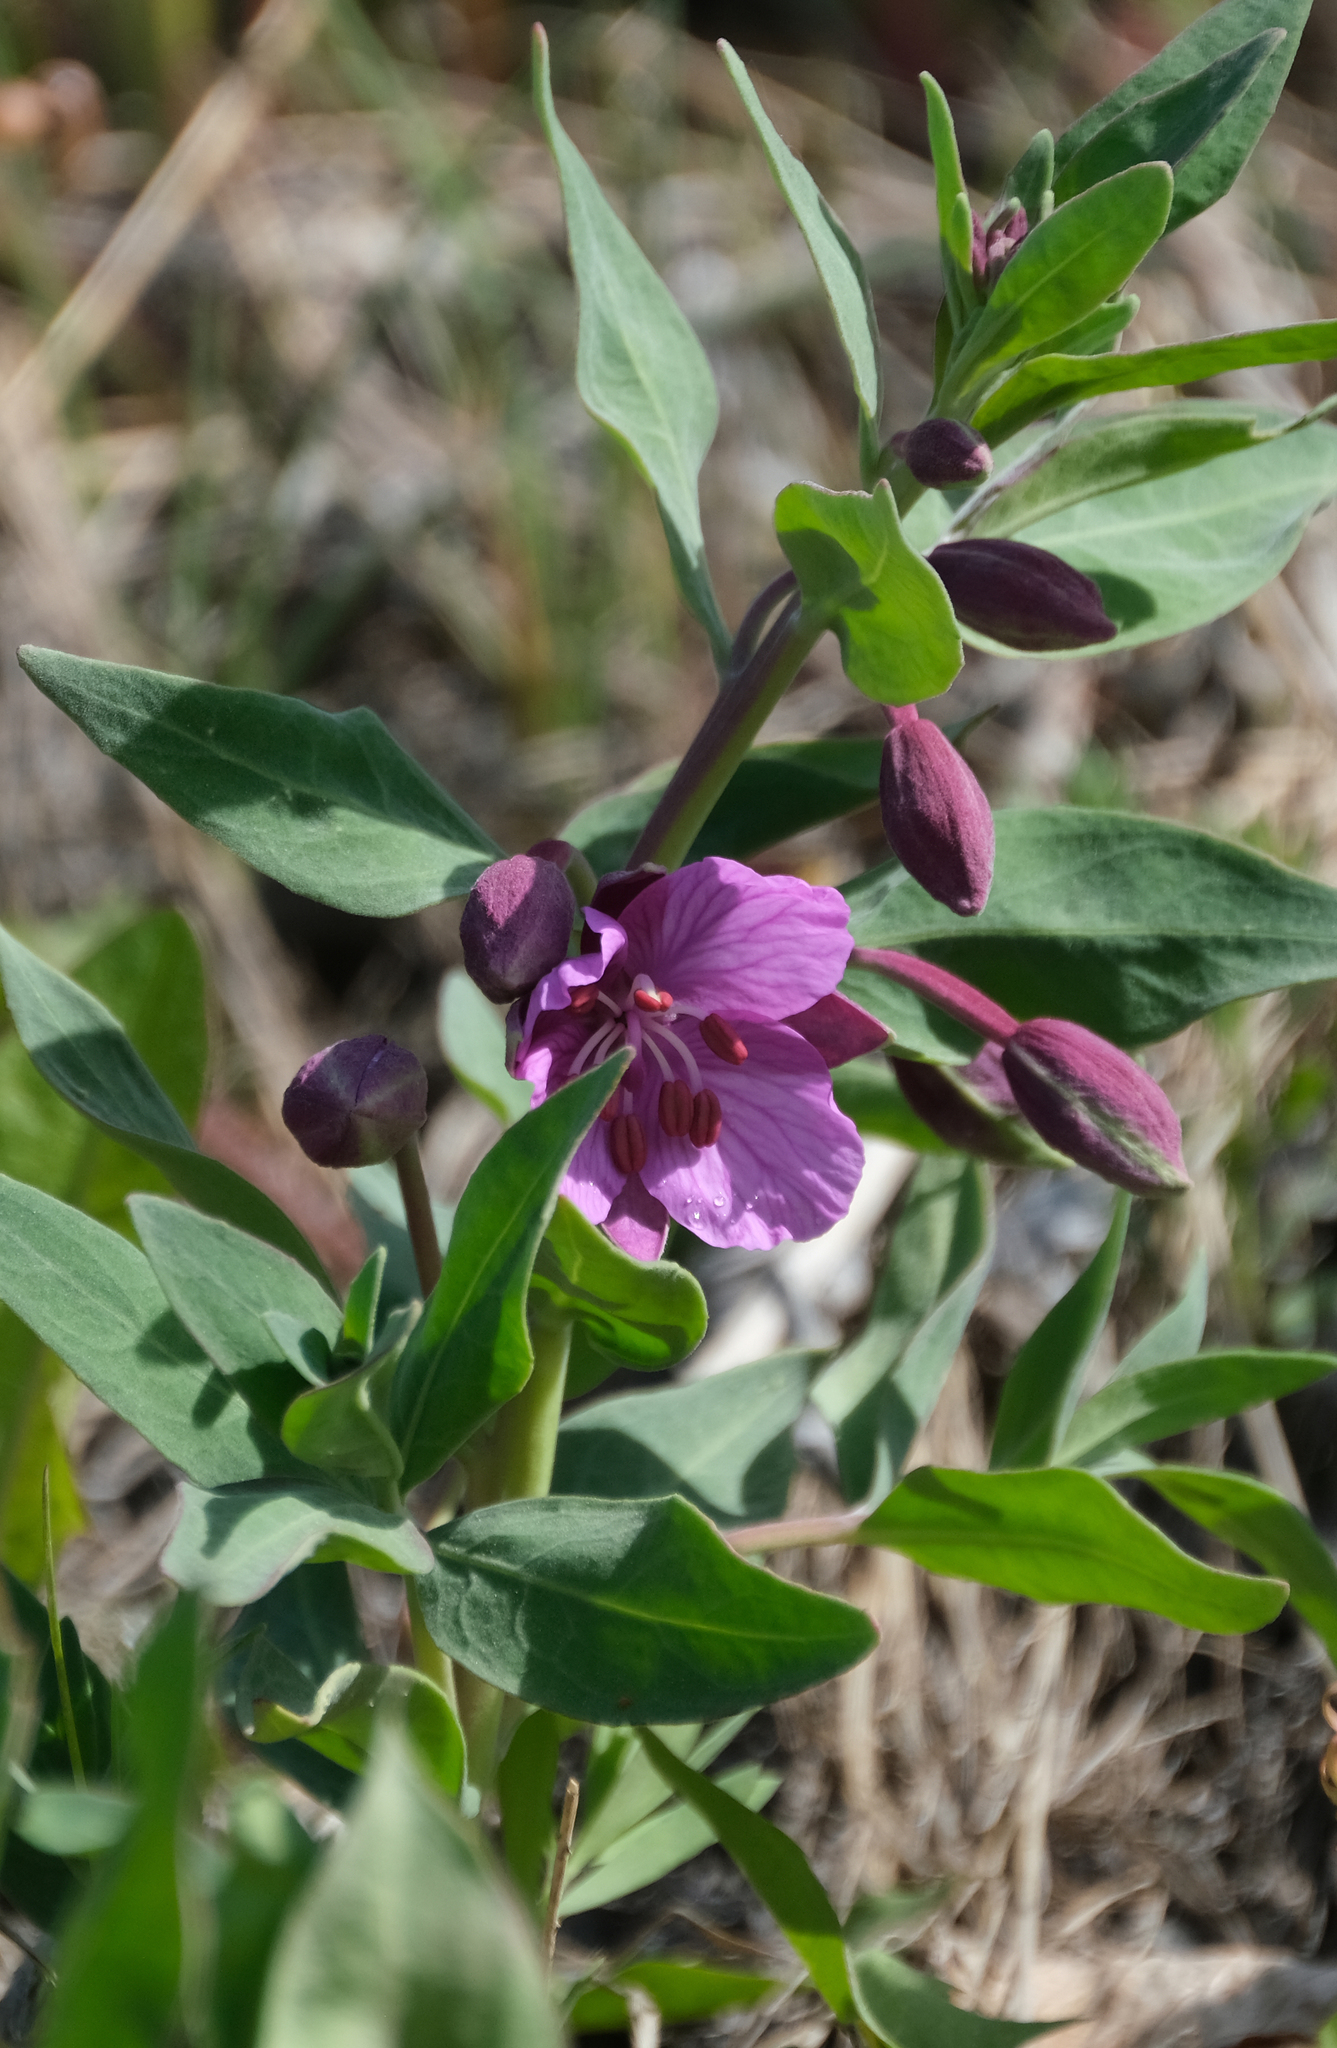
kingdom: Plantae
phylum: Tracheophyta
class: Magnoliopsida
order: Myrtales
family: Onagraceae
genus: Chamaenerion
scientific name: Chamaenerion latifolium
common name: Dwarf fireweed
